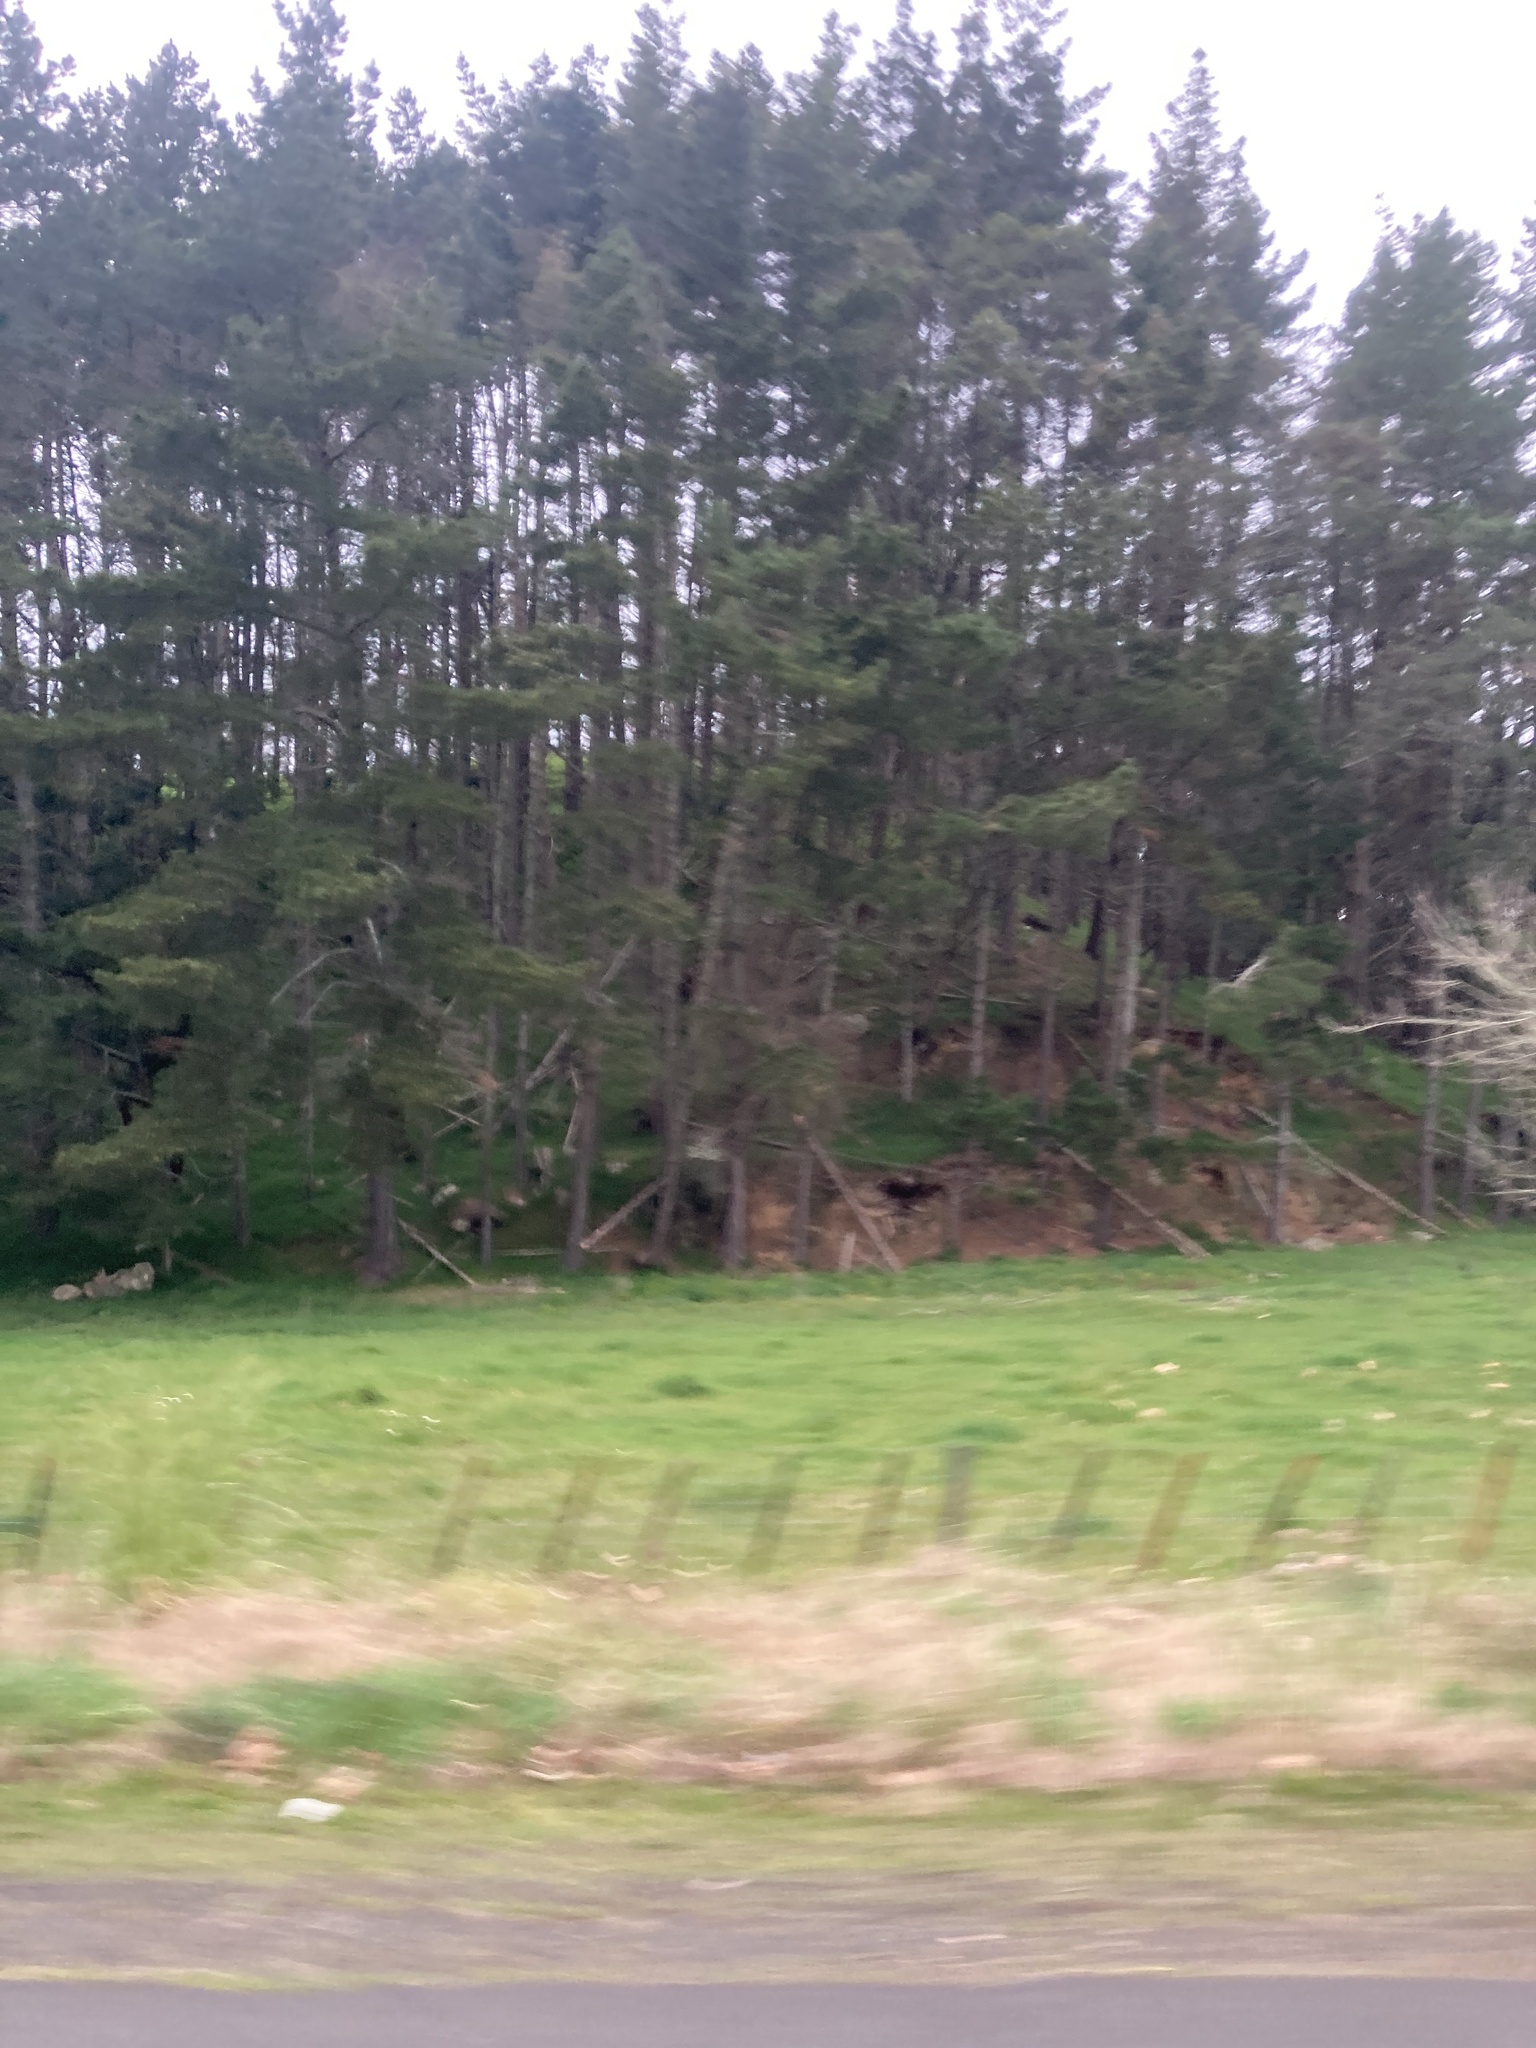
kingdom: Plantae
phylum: Tracheophyta
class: Pinopsida
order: Pinales
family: Pinaceae
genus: Pinus
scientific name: Pinus radiata
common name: Monterey pine
